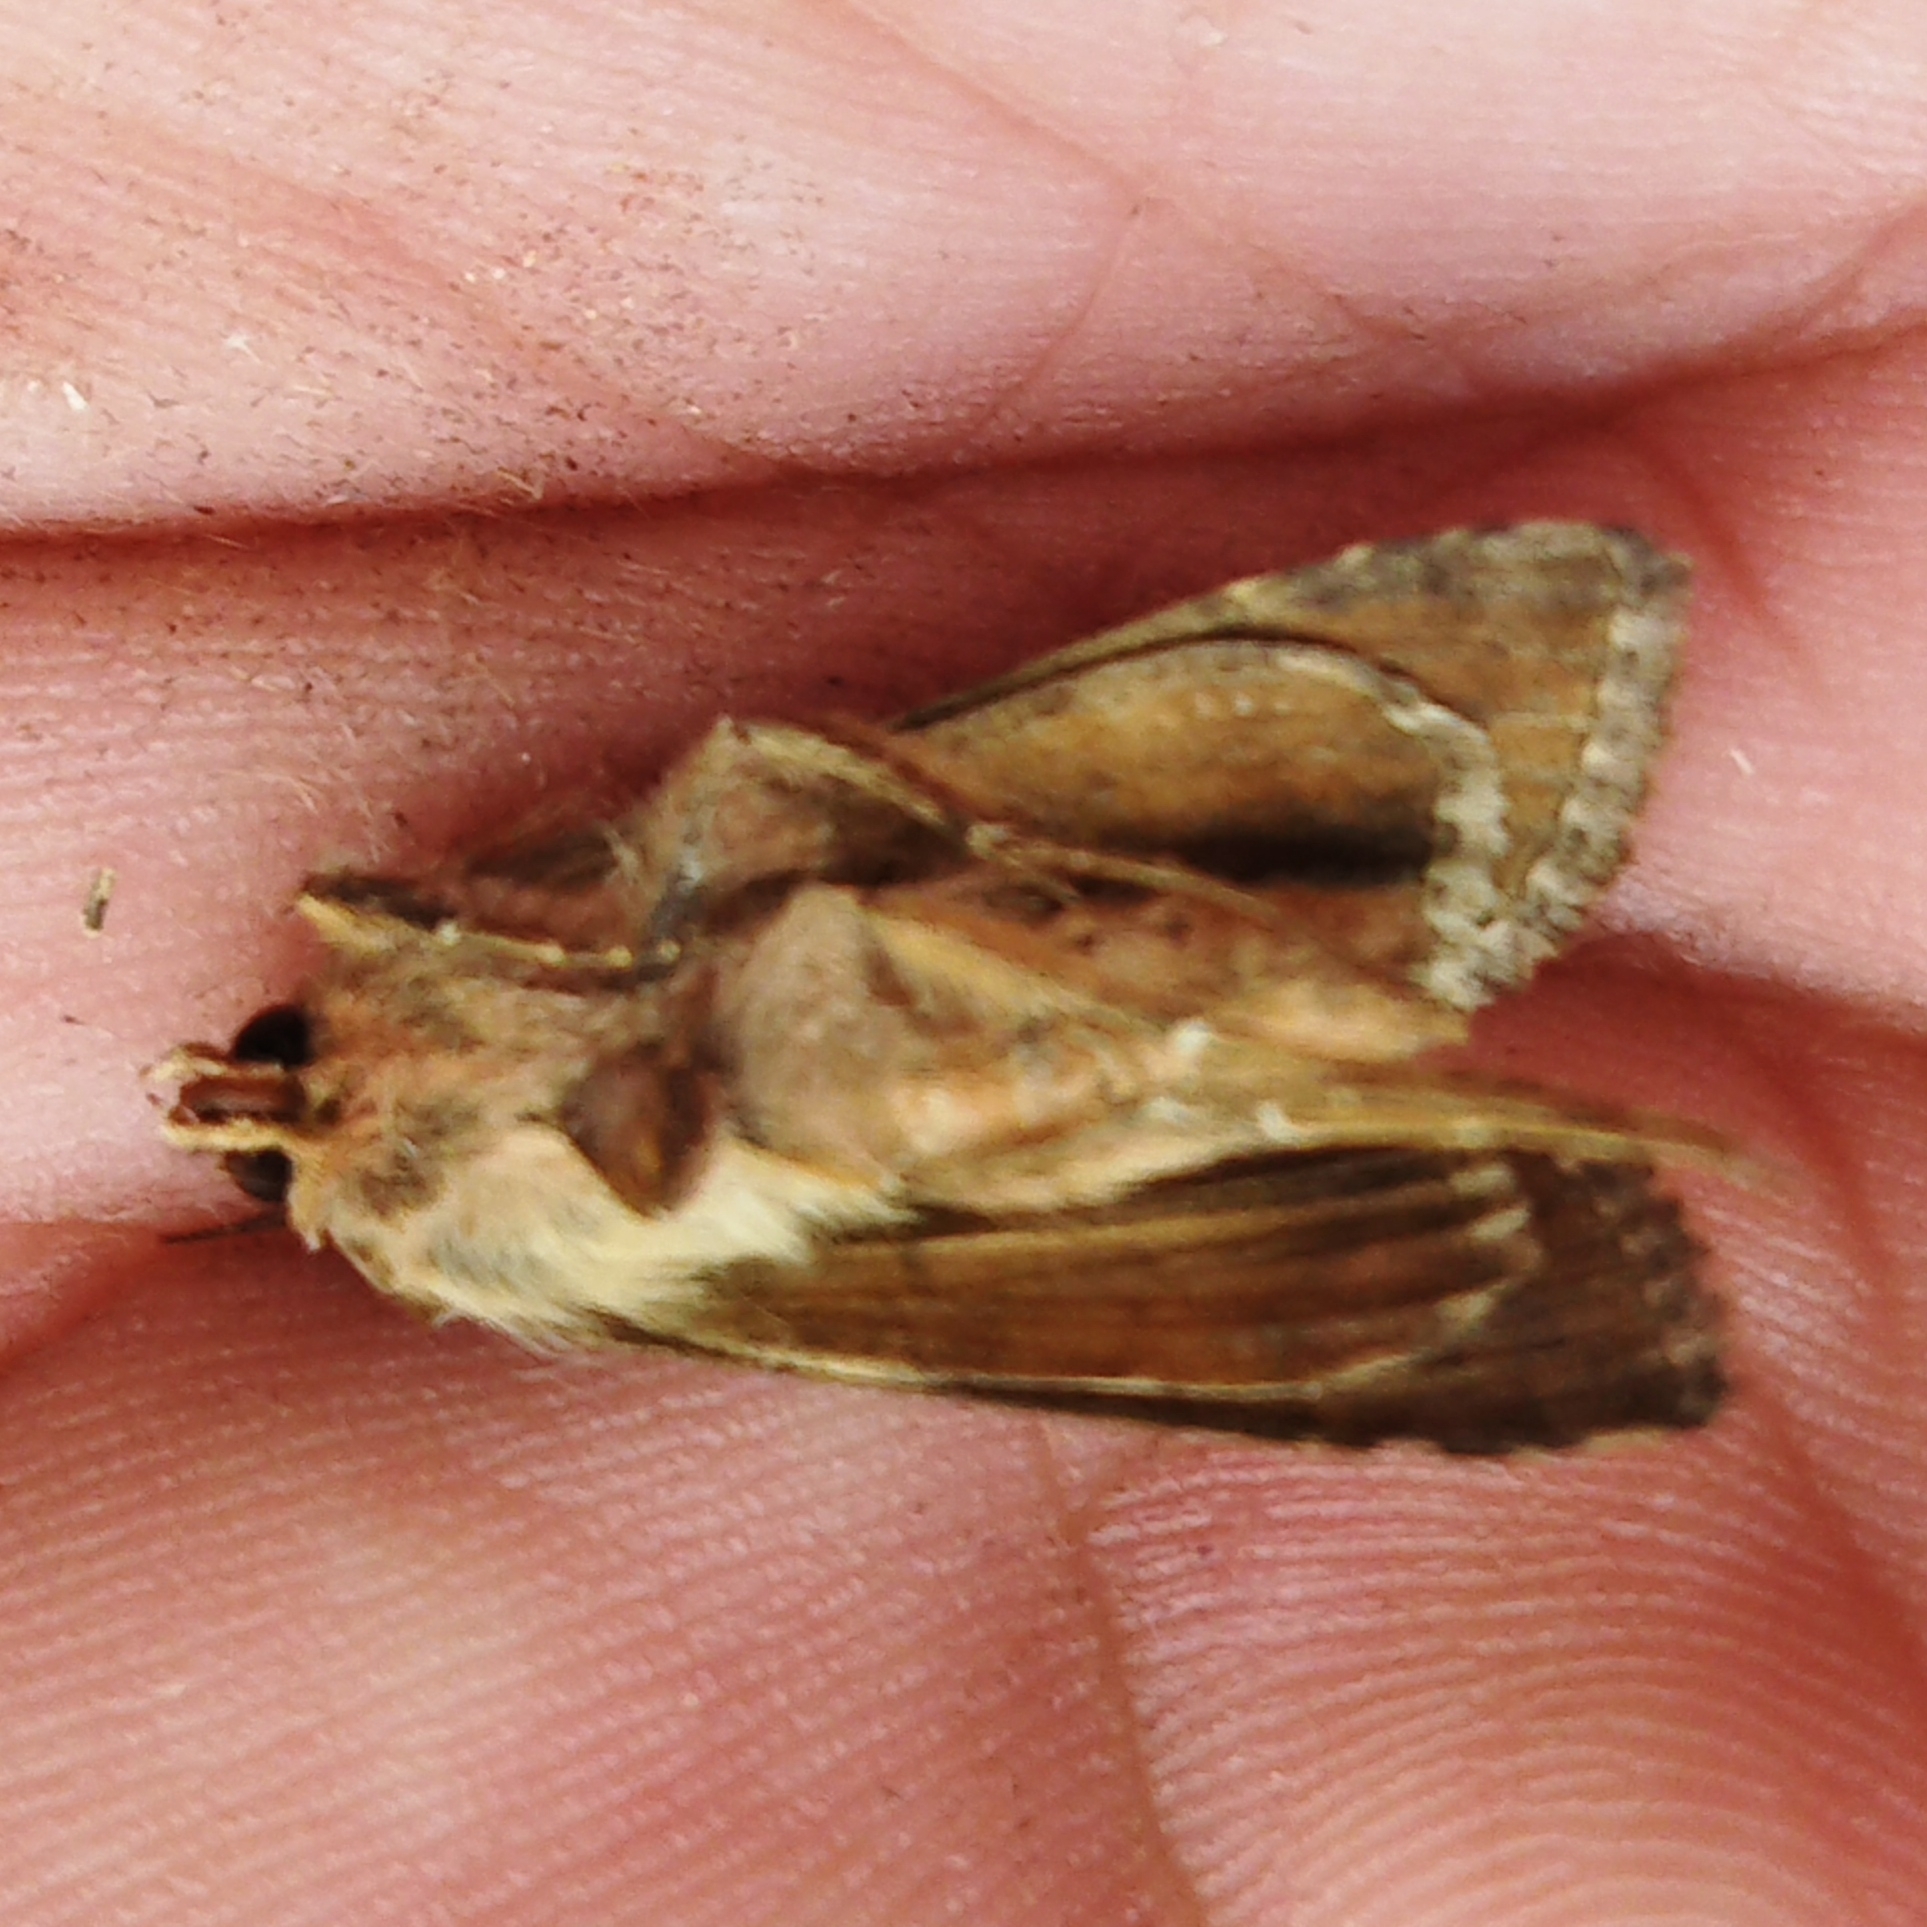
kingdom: Animalia
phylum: Arthropoda
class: Insecta
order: Lepidoptera
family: Noctuidae
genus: Autographa
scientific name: Autographa gamma
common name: Silver y
